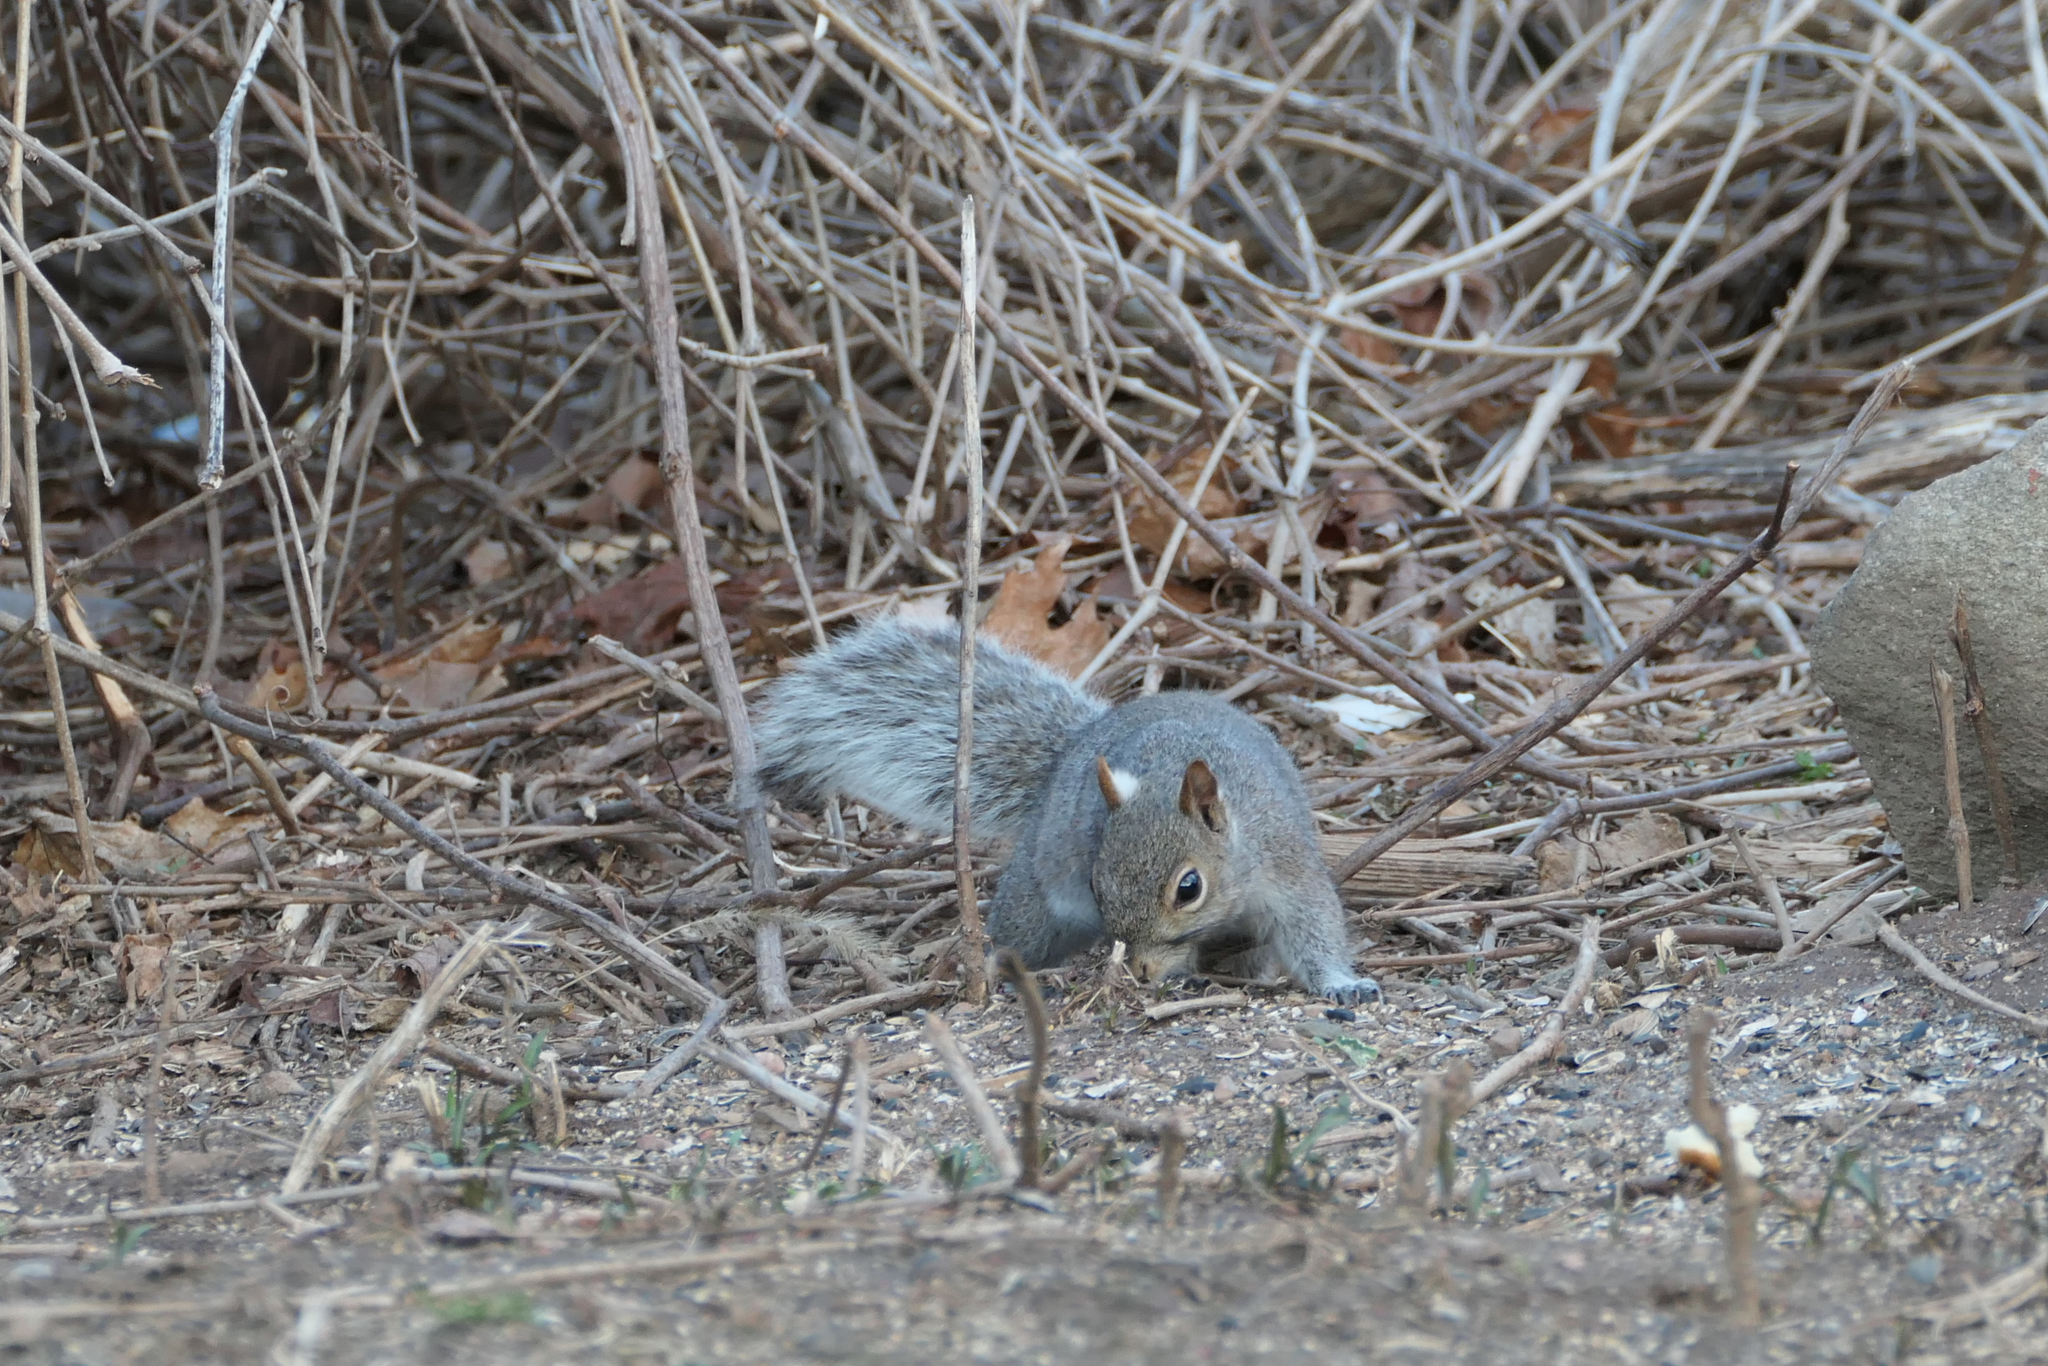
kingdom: Animalia
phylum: Chordata
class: Mammalia
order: Rodentia
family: Sciuridae
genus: Sciurus
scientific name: Sciurus carolinensis
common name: Eastern gray squirrel
